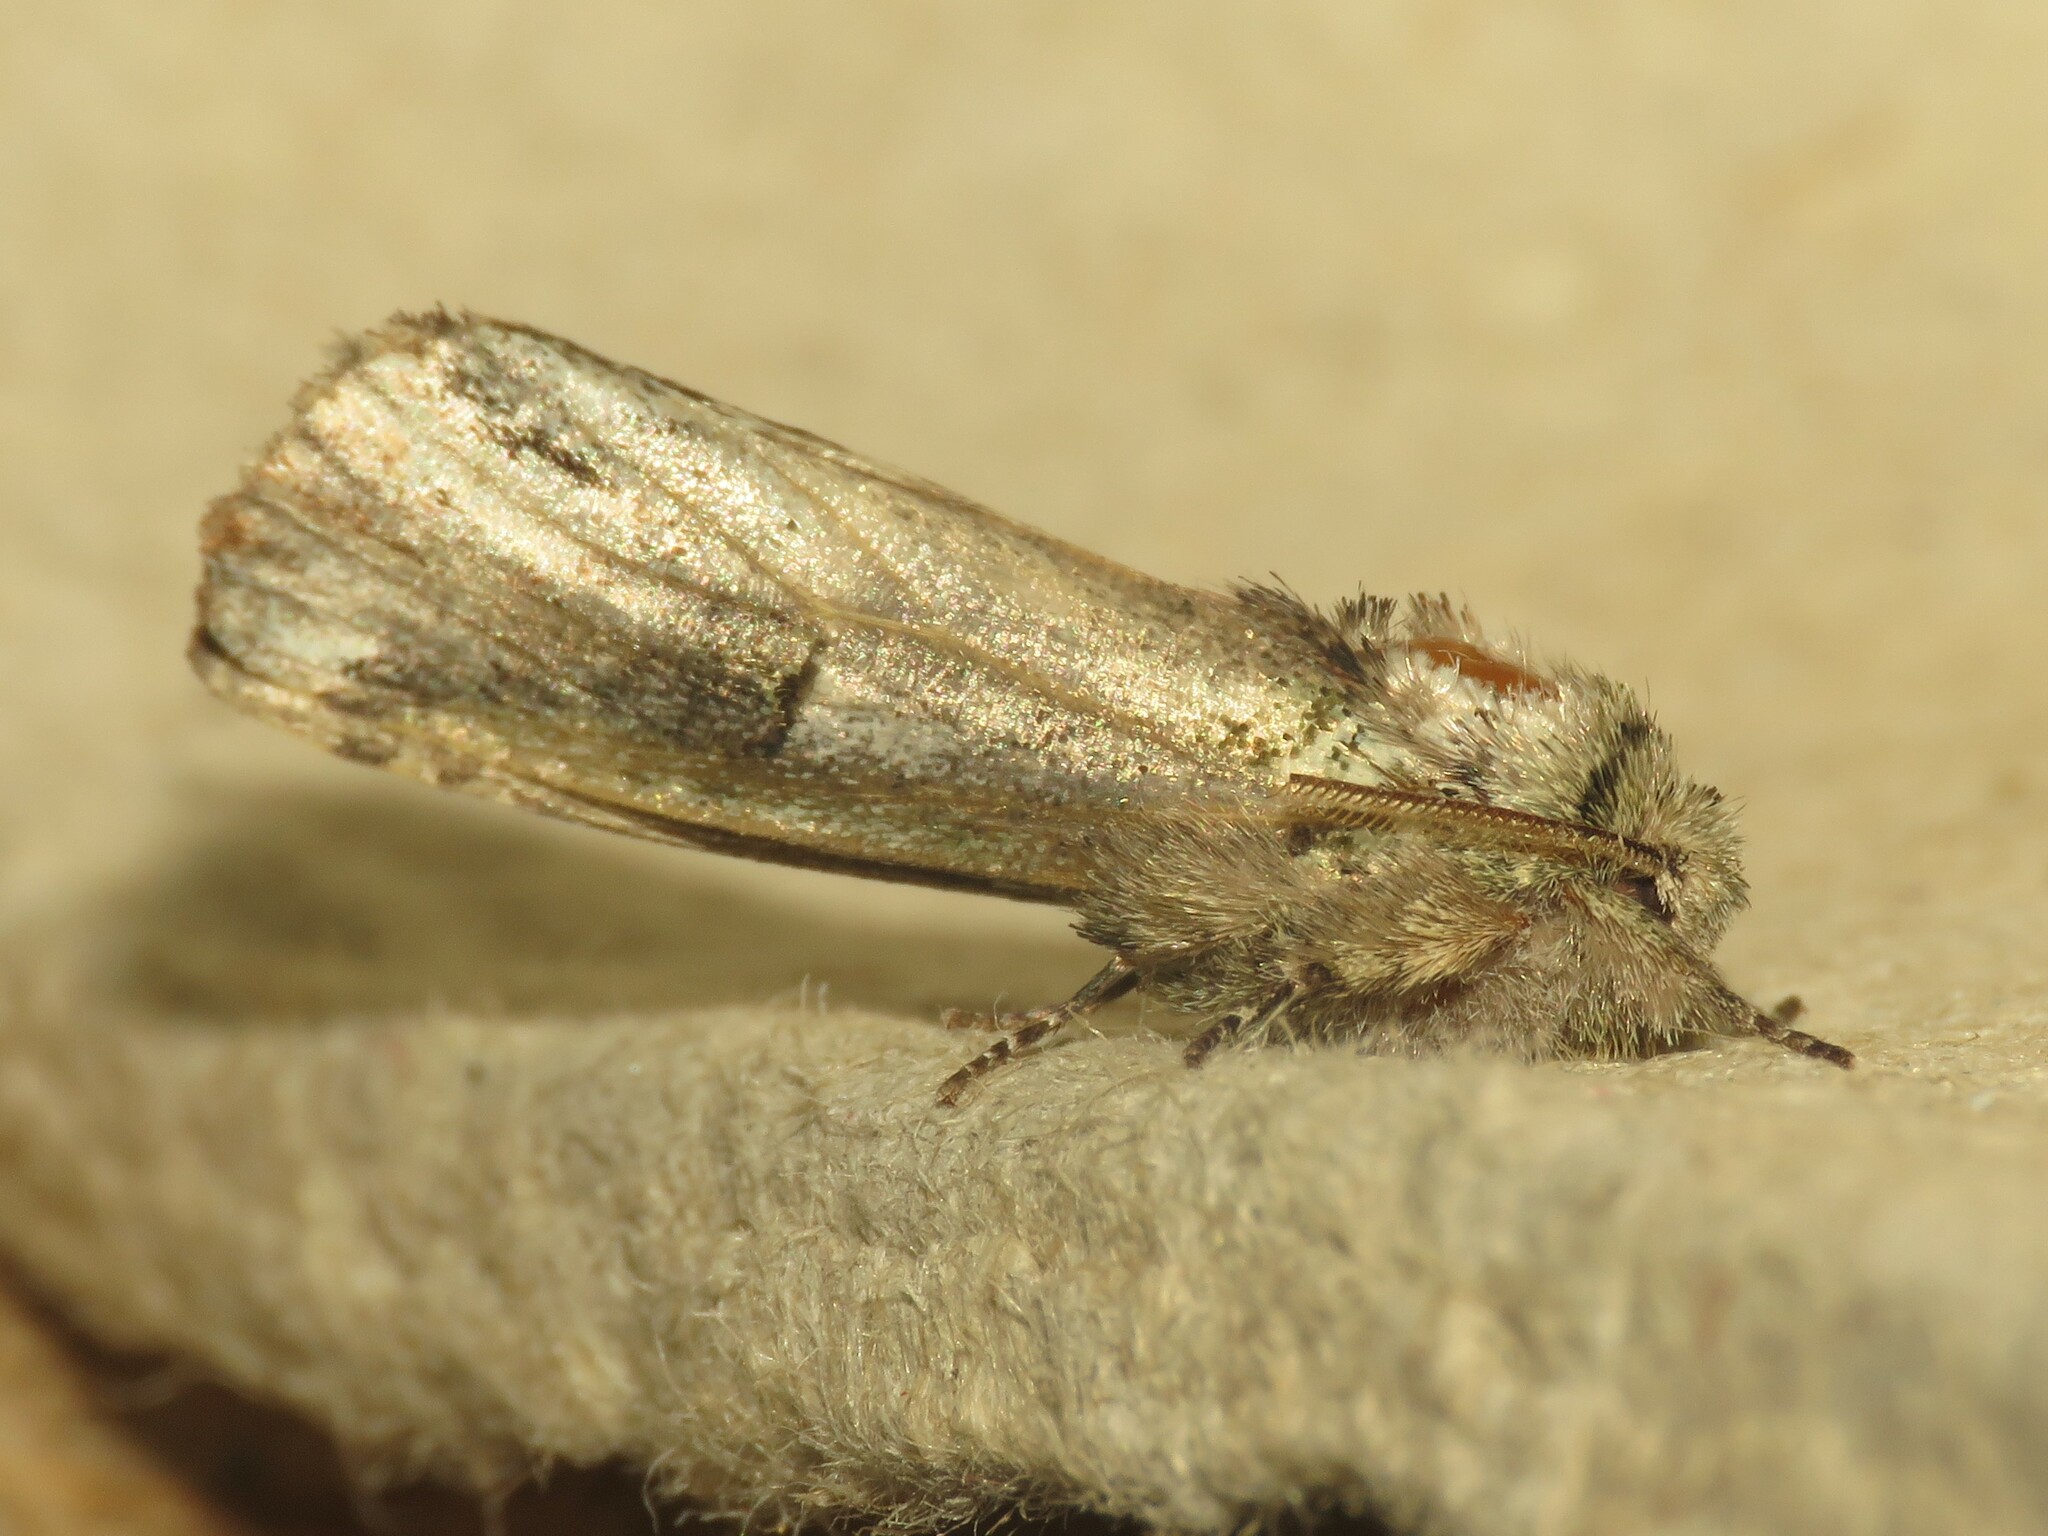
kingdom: Animalia
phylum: Arthropoda
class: Insecta
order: Lepidoptera
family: Notodontidae
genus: Schizura
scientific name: Schizura
